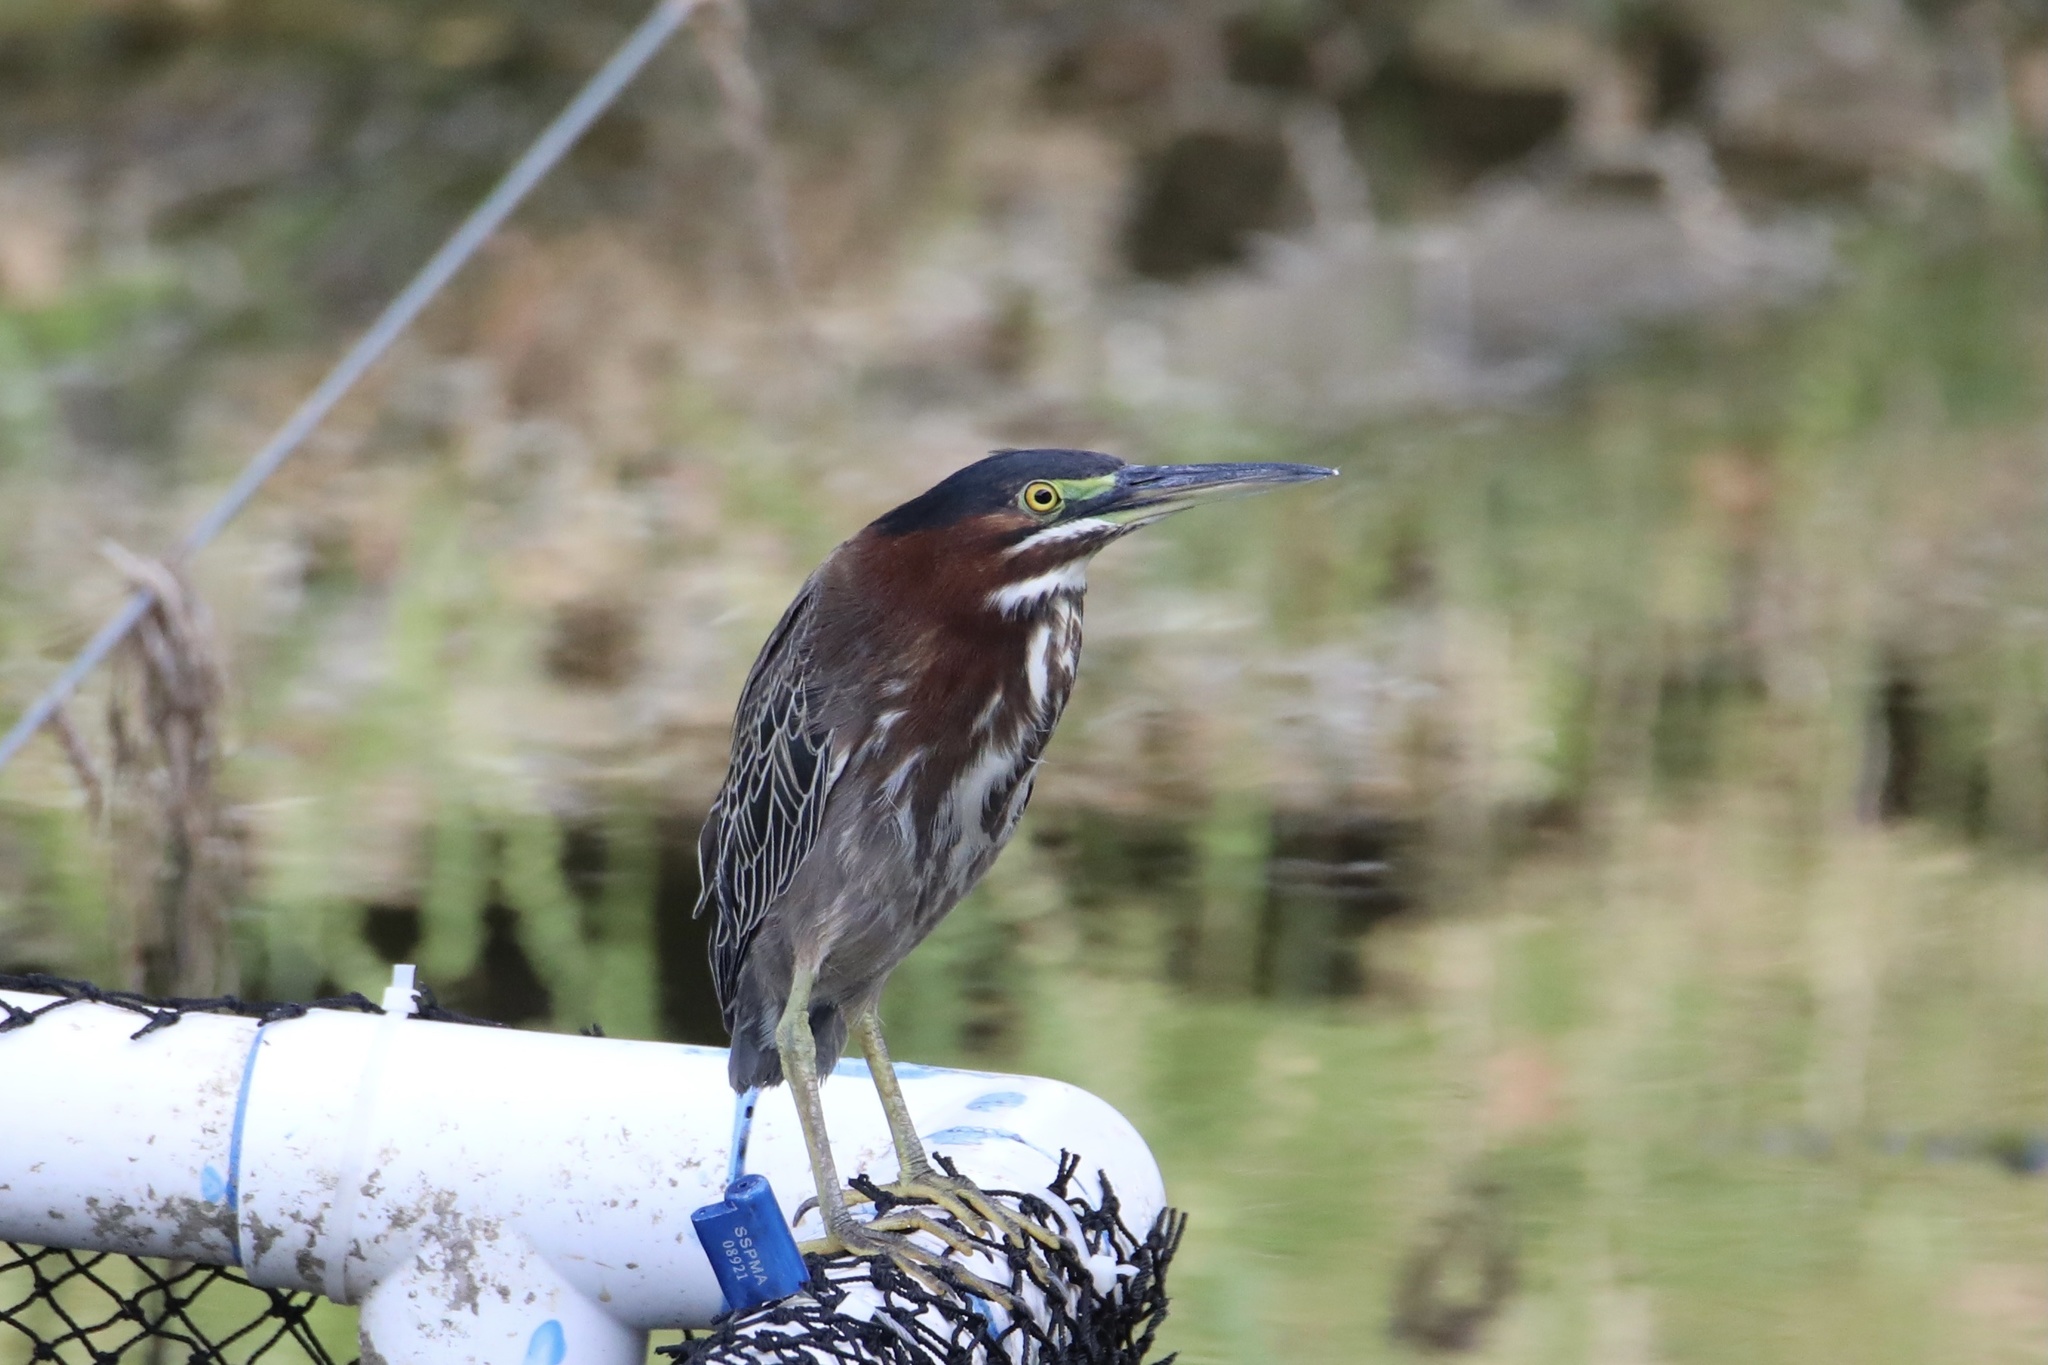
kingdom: Animalia
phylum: Chordata
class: Aves
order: Pelecaniformes
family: Ardeidae
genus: Butorides
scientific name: Butorides virescens
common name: Green heron
